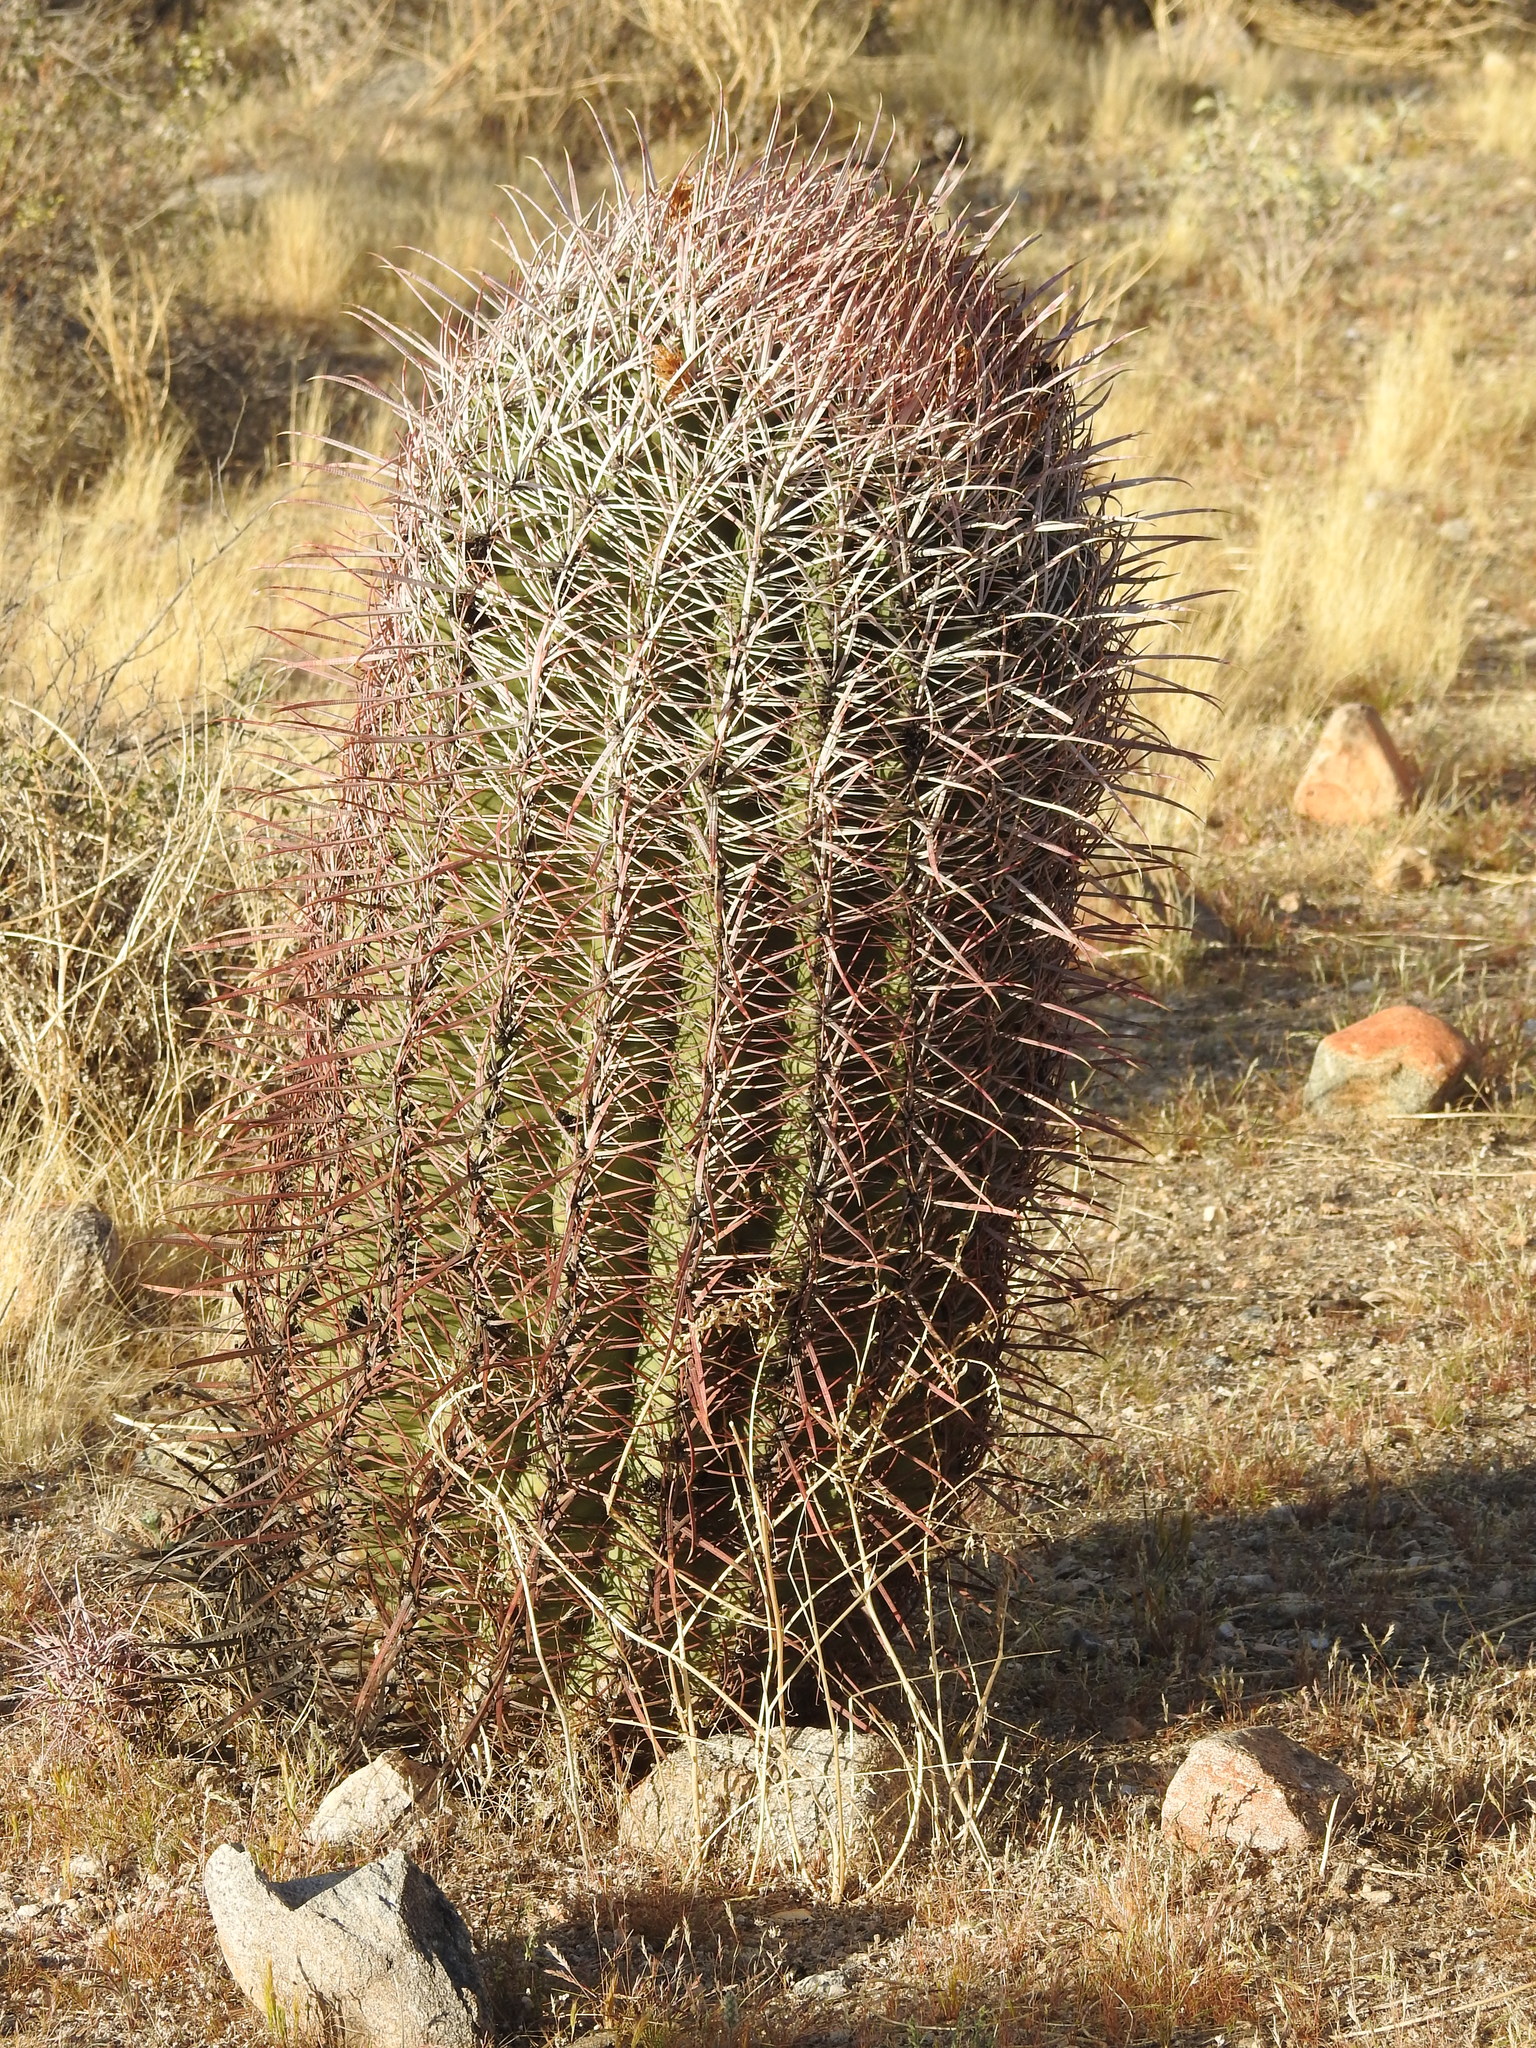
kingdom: Plantae
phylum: Tracheophyta
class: Magnoliopsida
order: Caryophyllales
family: Cactaceae
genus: Ferocactus
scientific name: Ferocactus cylindraceus
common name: California barrel cactus
